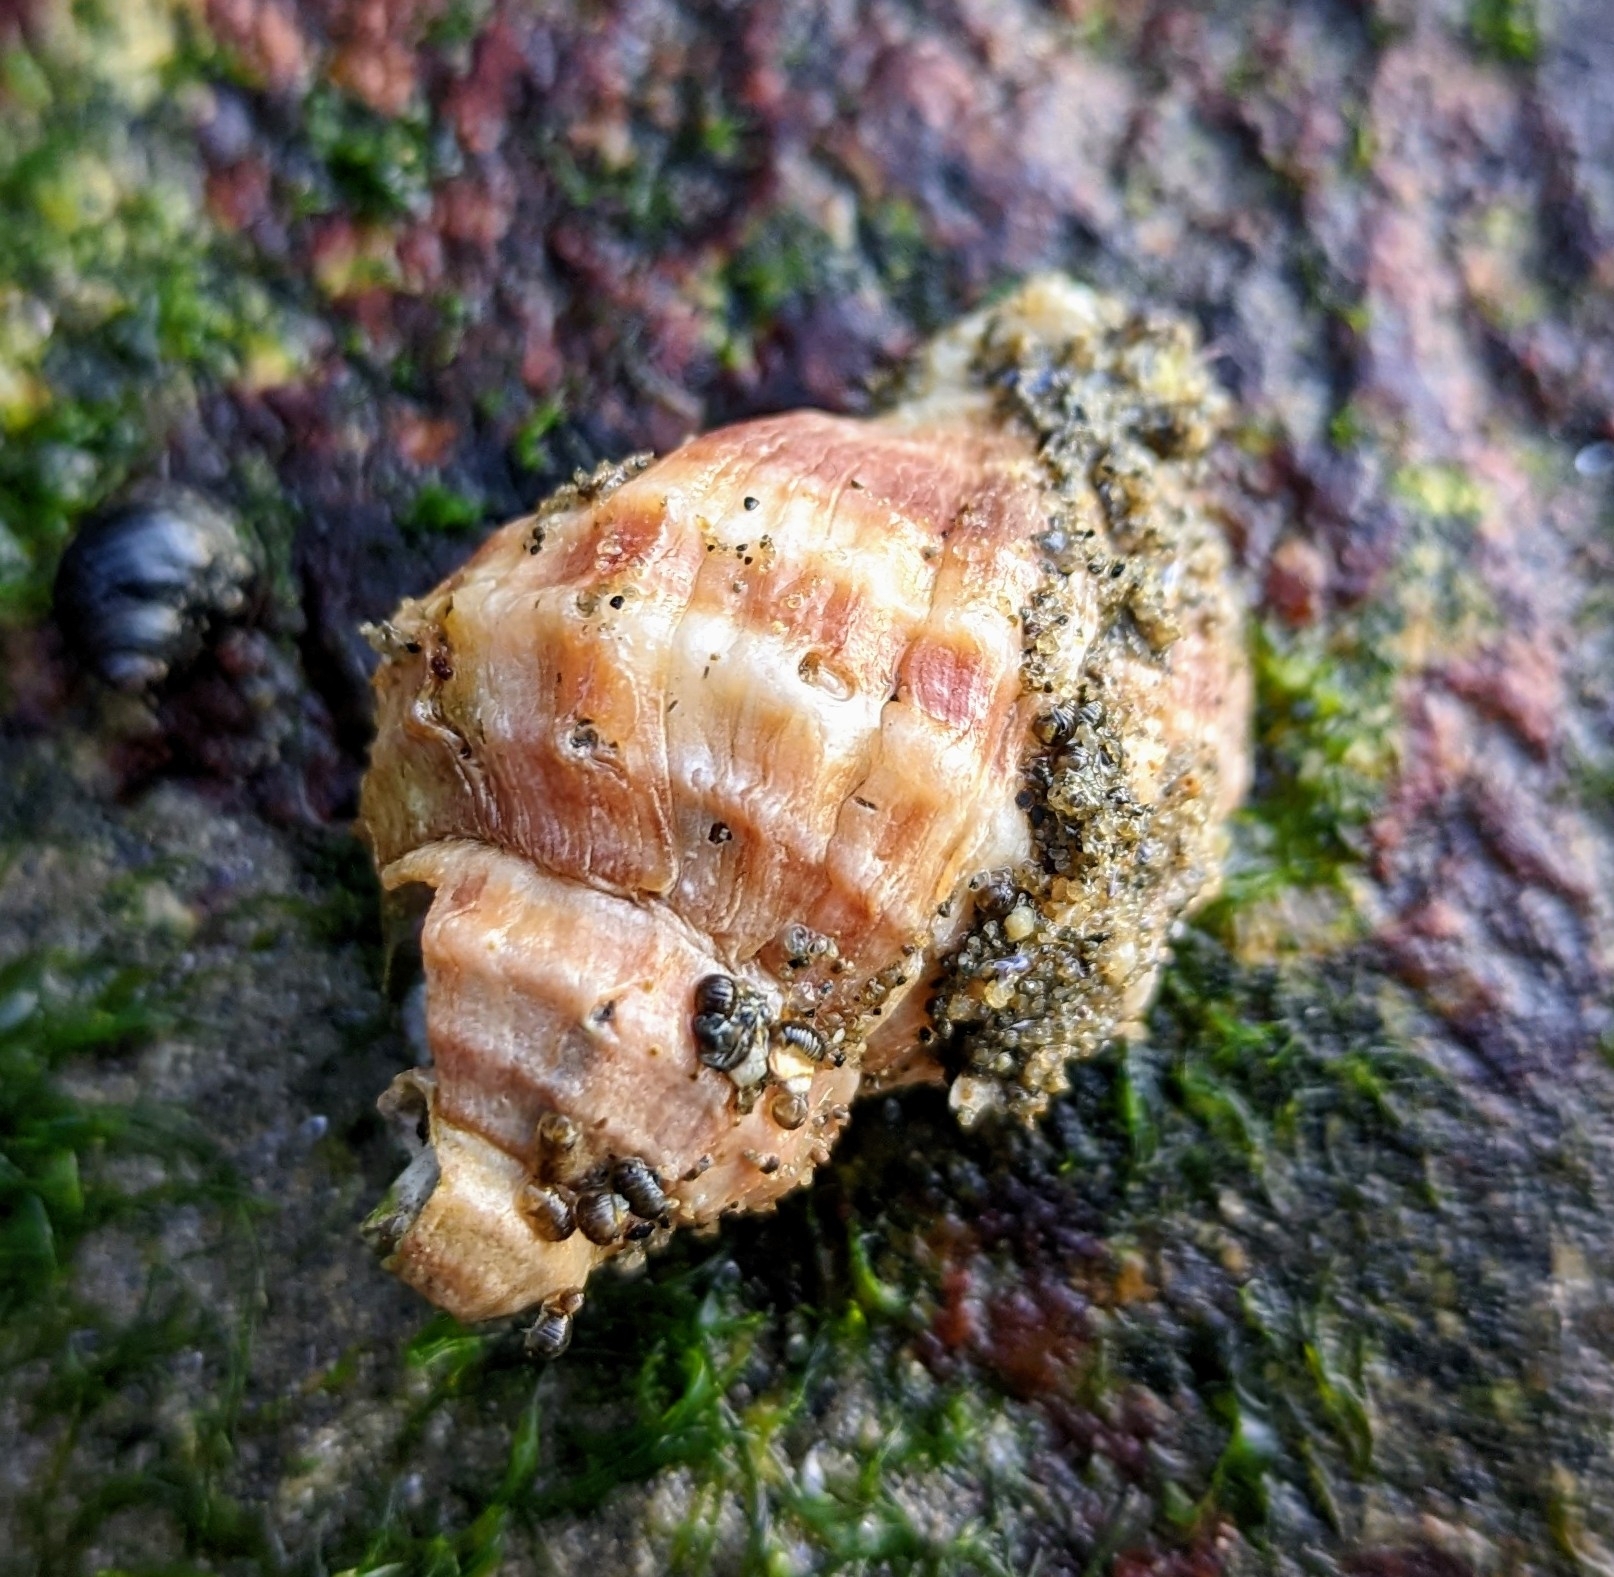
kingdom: Animalia
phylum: Mollusca
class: Gastropoda
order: Neogastropoda
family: Muricidae
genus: Nucella
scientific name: Nucella lamellosa
